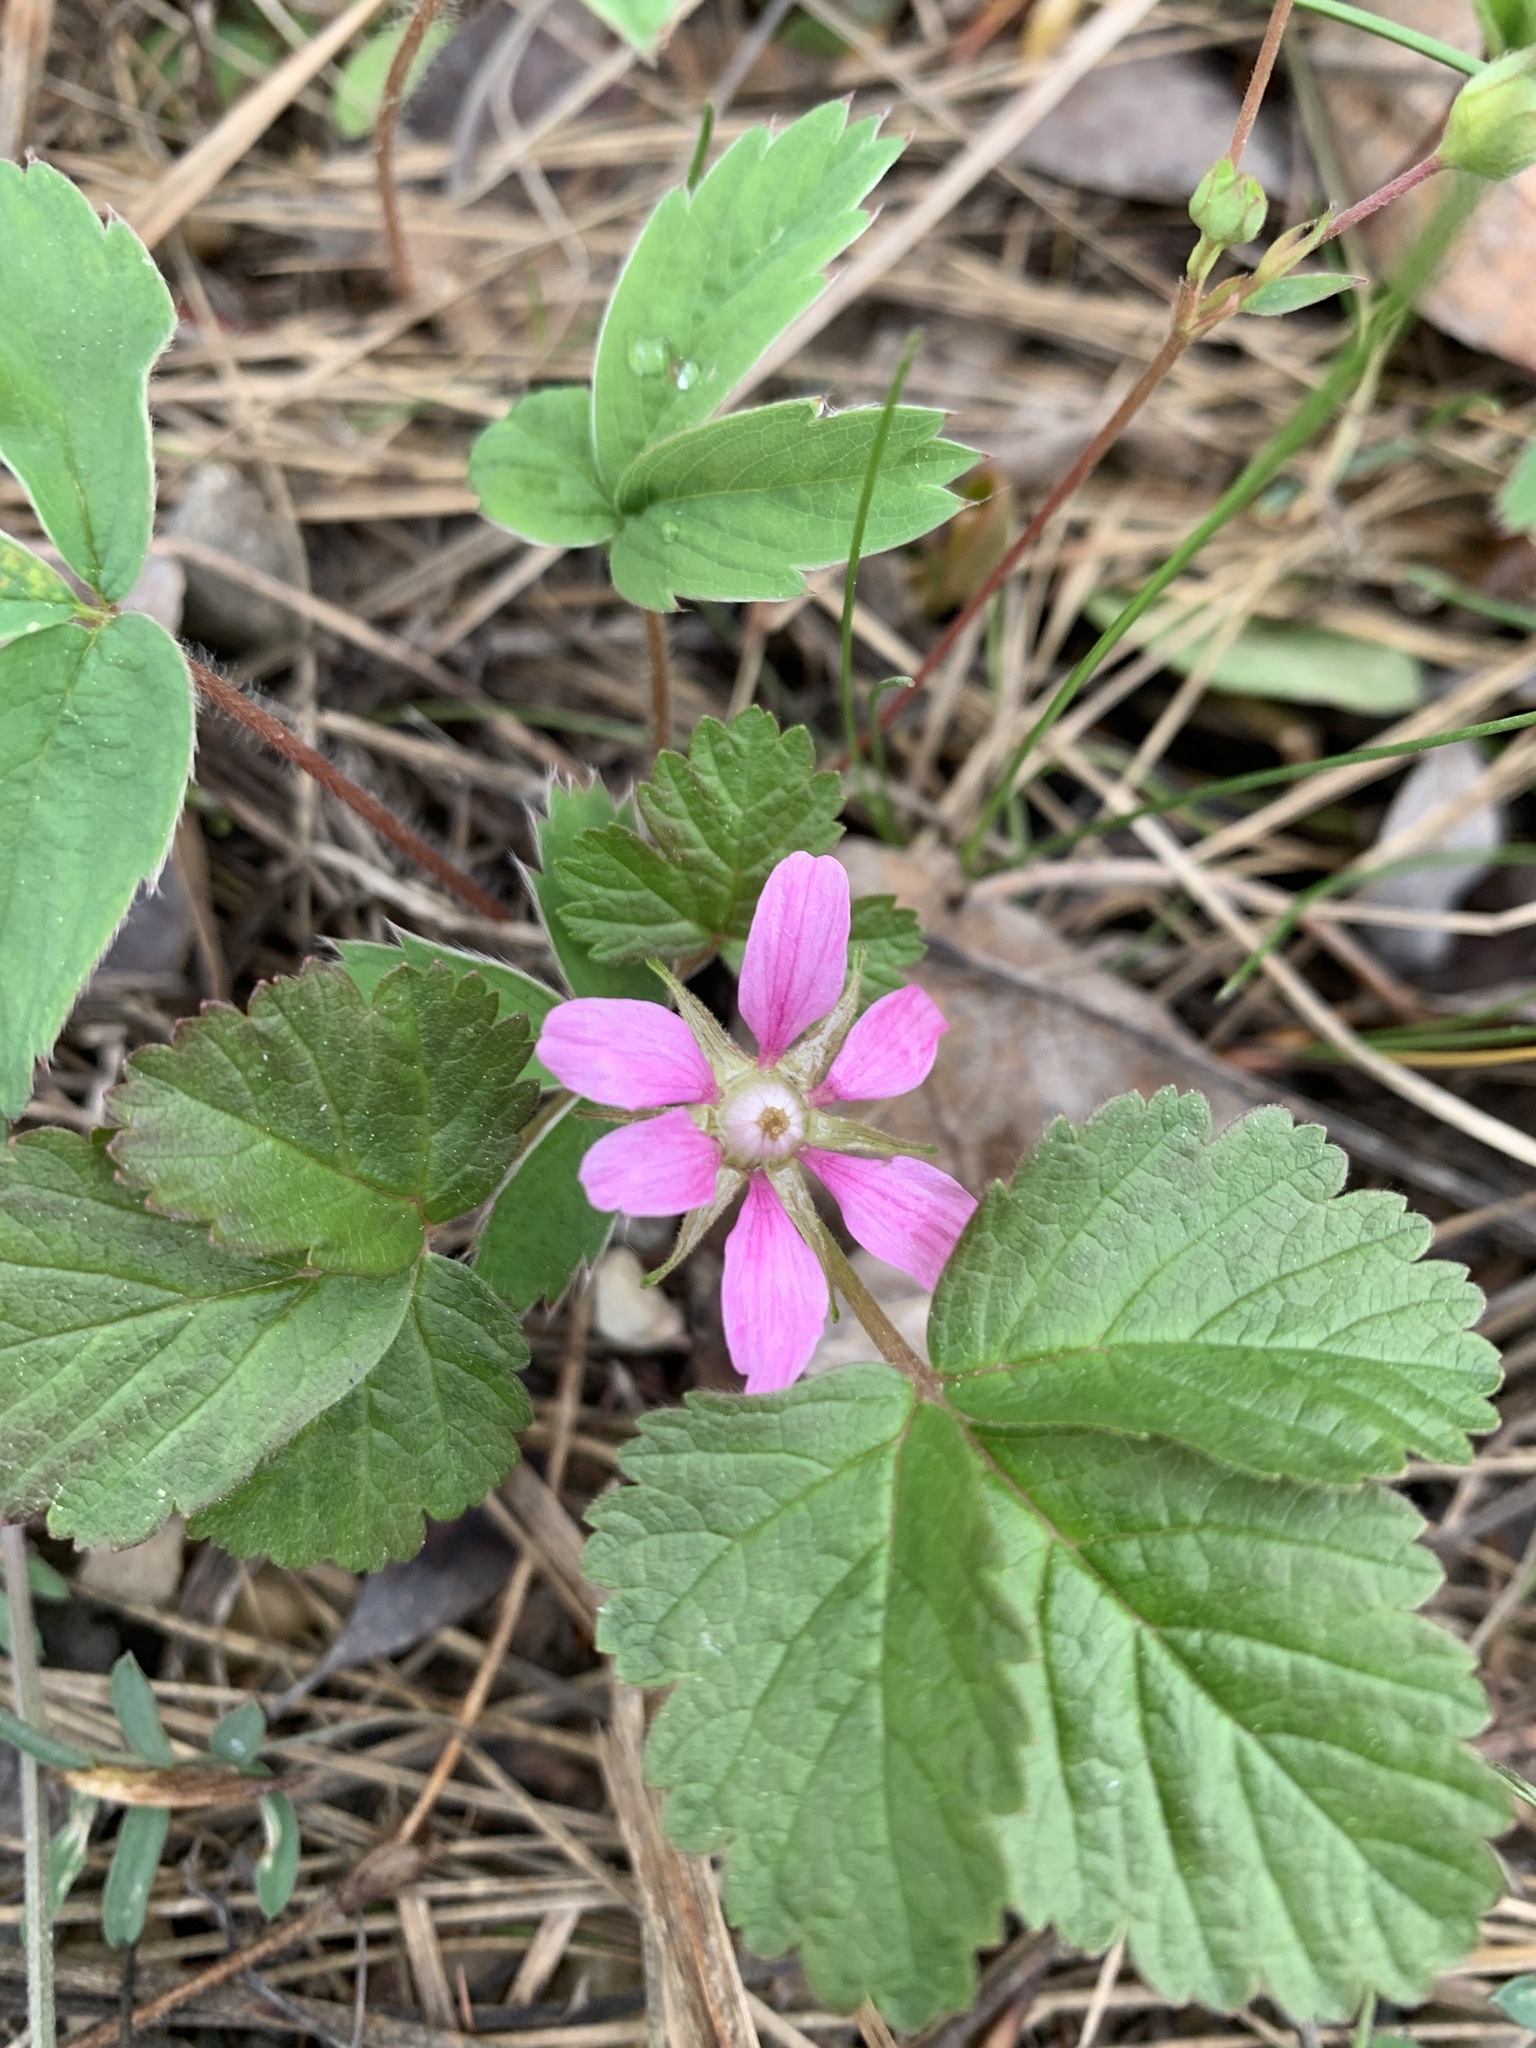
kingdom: Plantae
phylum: Tracheophyta
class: Magnoliopsida
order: Rosales
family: Rosaceae
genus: Rubus
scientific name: Rubus arcticus
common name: Arctic bramble
